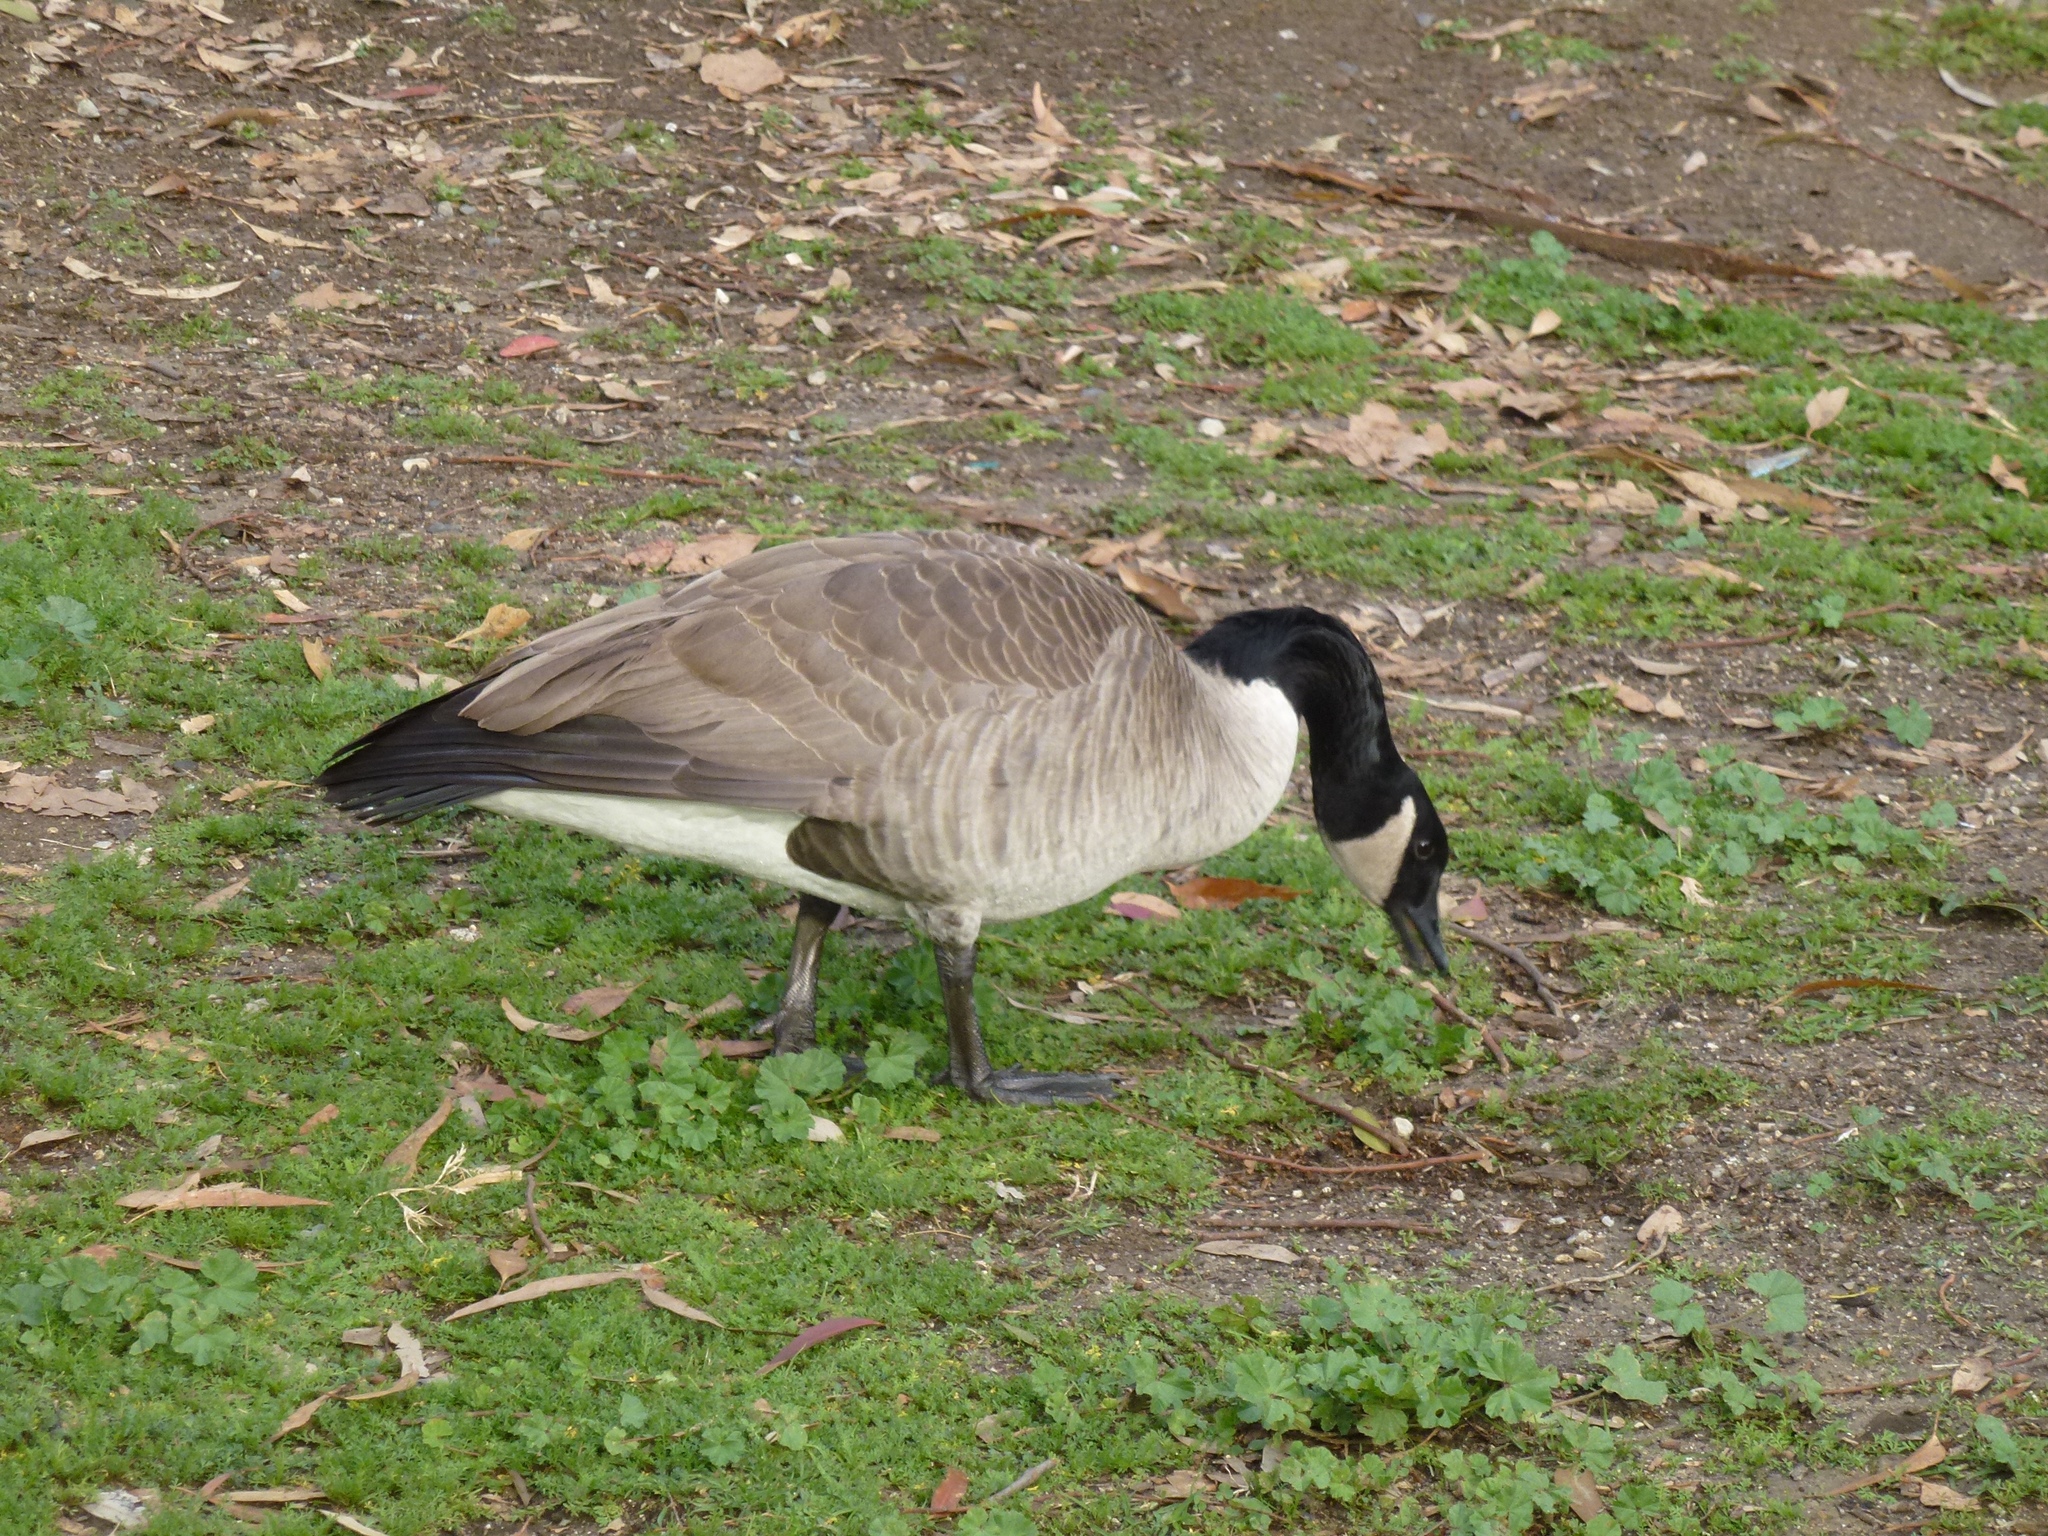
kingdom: Animalia
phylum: Chordata
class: Aves
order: Anseriformes
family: Anatidae
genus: Branta
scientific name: Branta canadensis
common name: Canada goose
